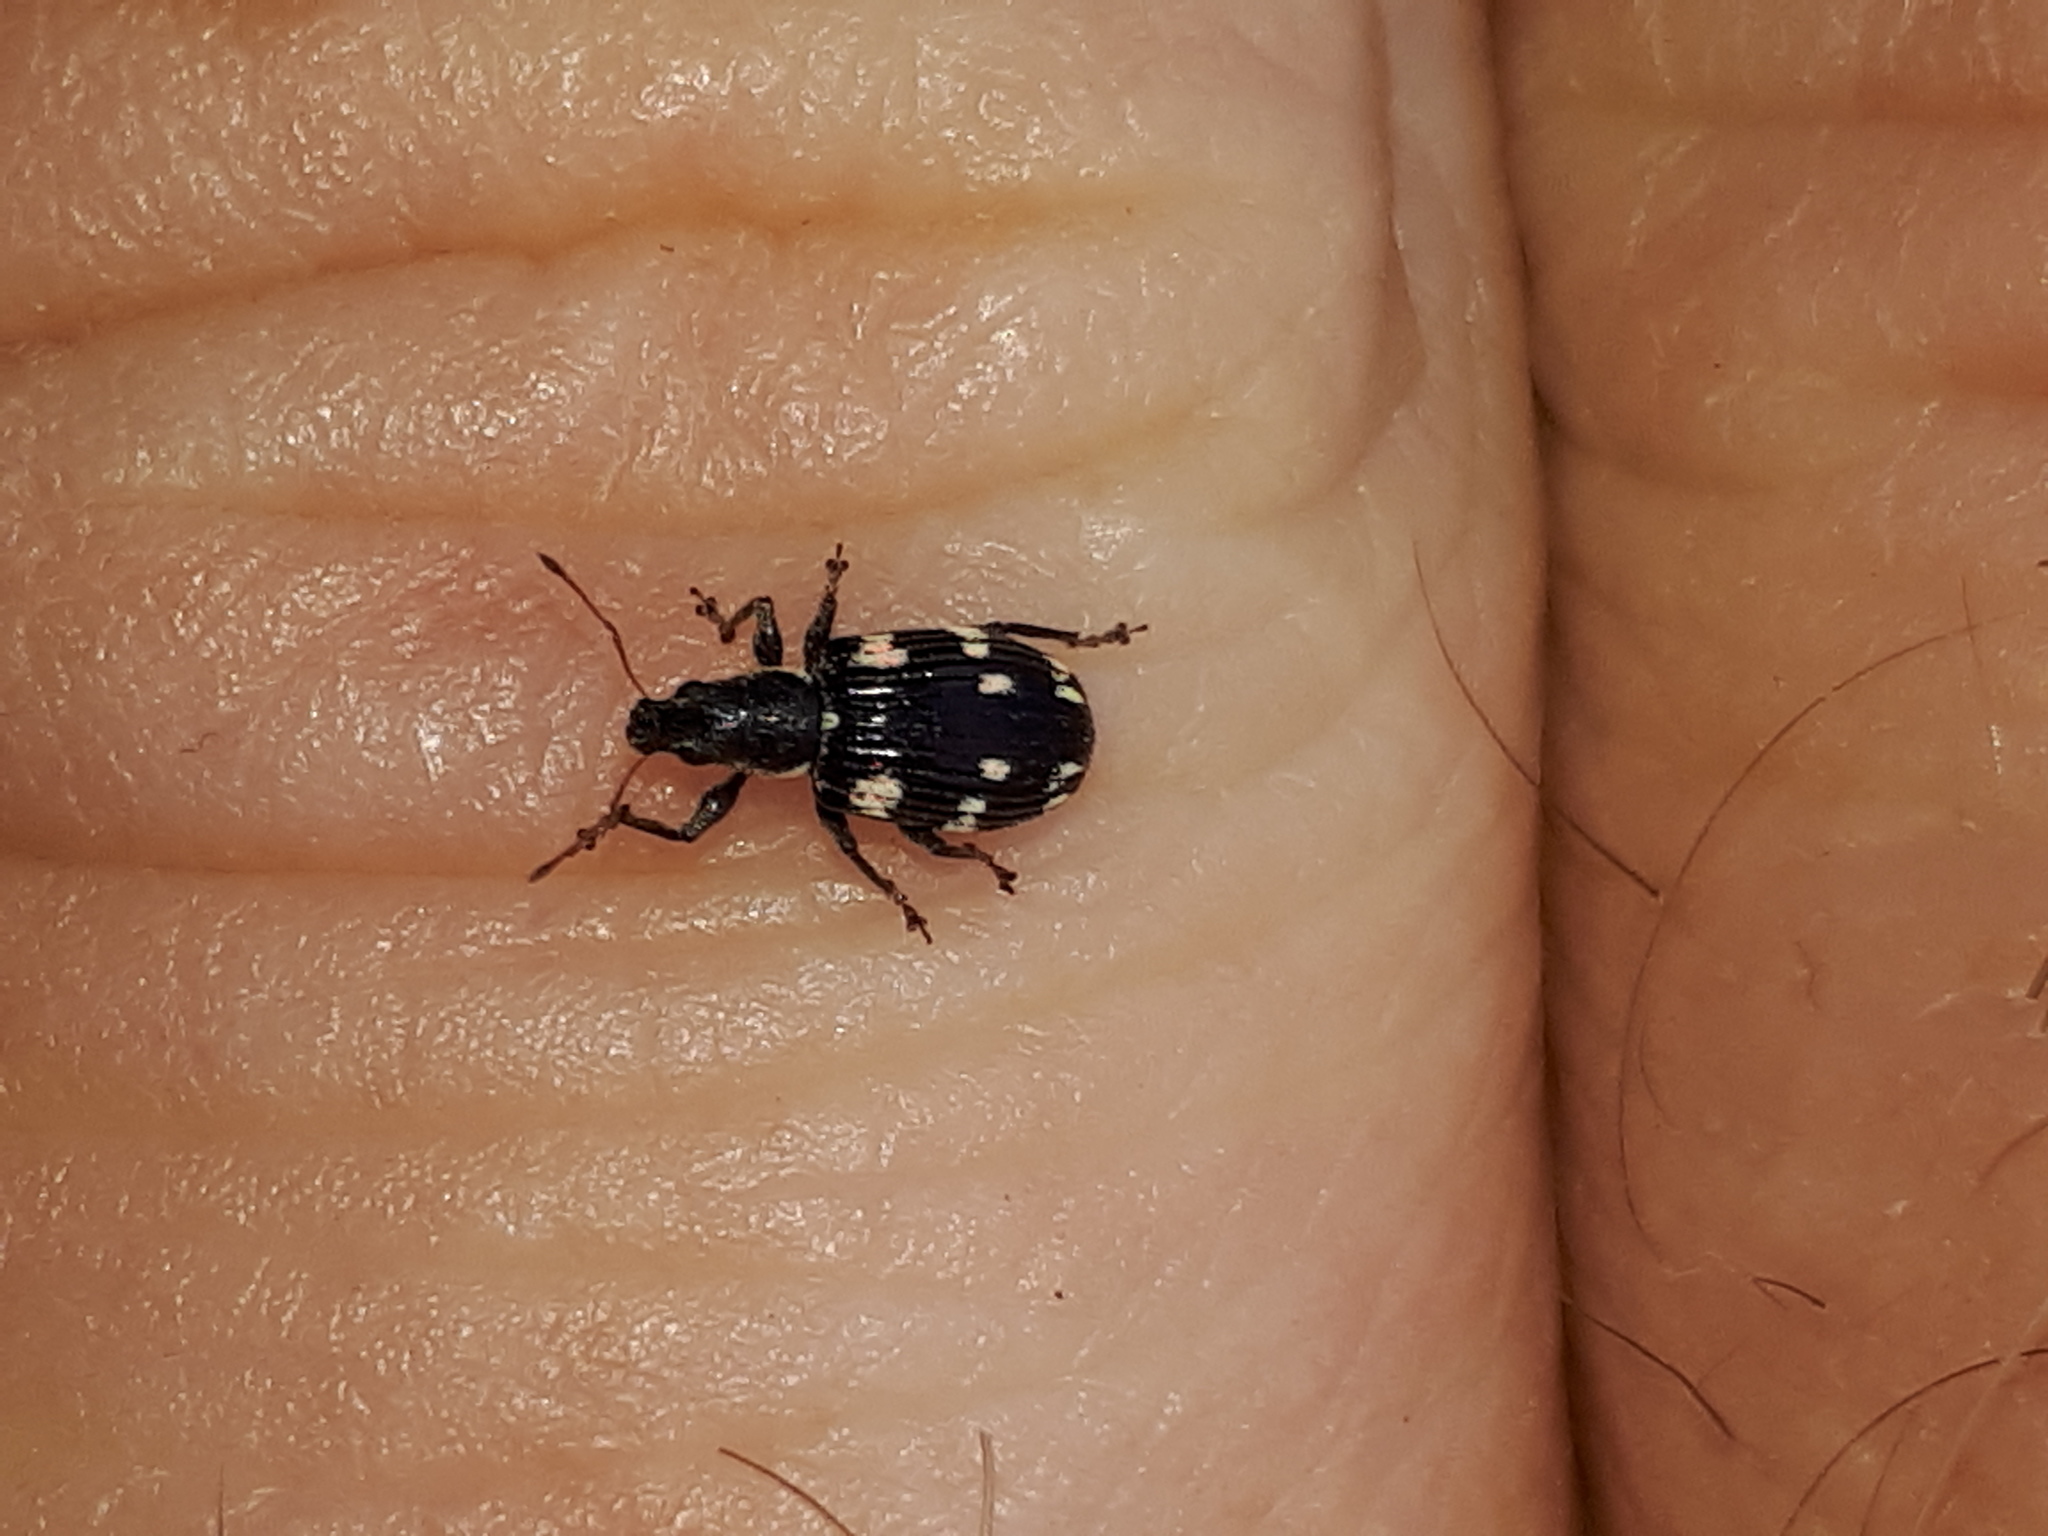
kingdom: Animalia
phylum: Arthropoda
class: Insecta
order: Coleoptera
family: Curculionidae
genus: Polydrusus
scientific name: Polydrusus picus
